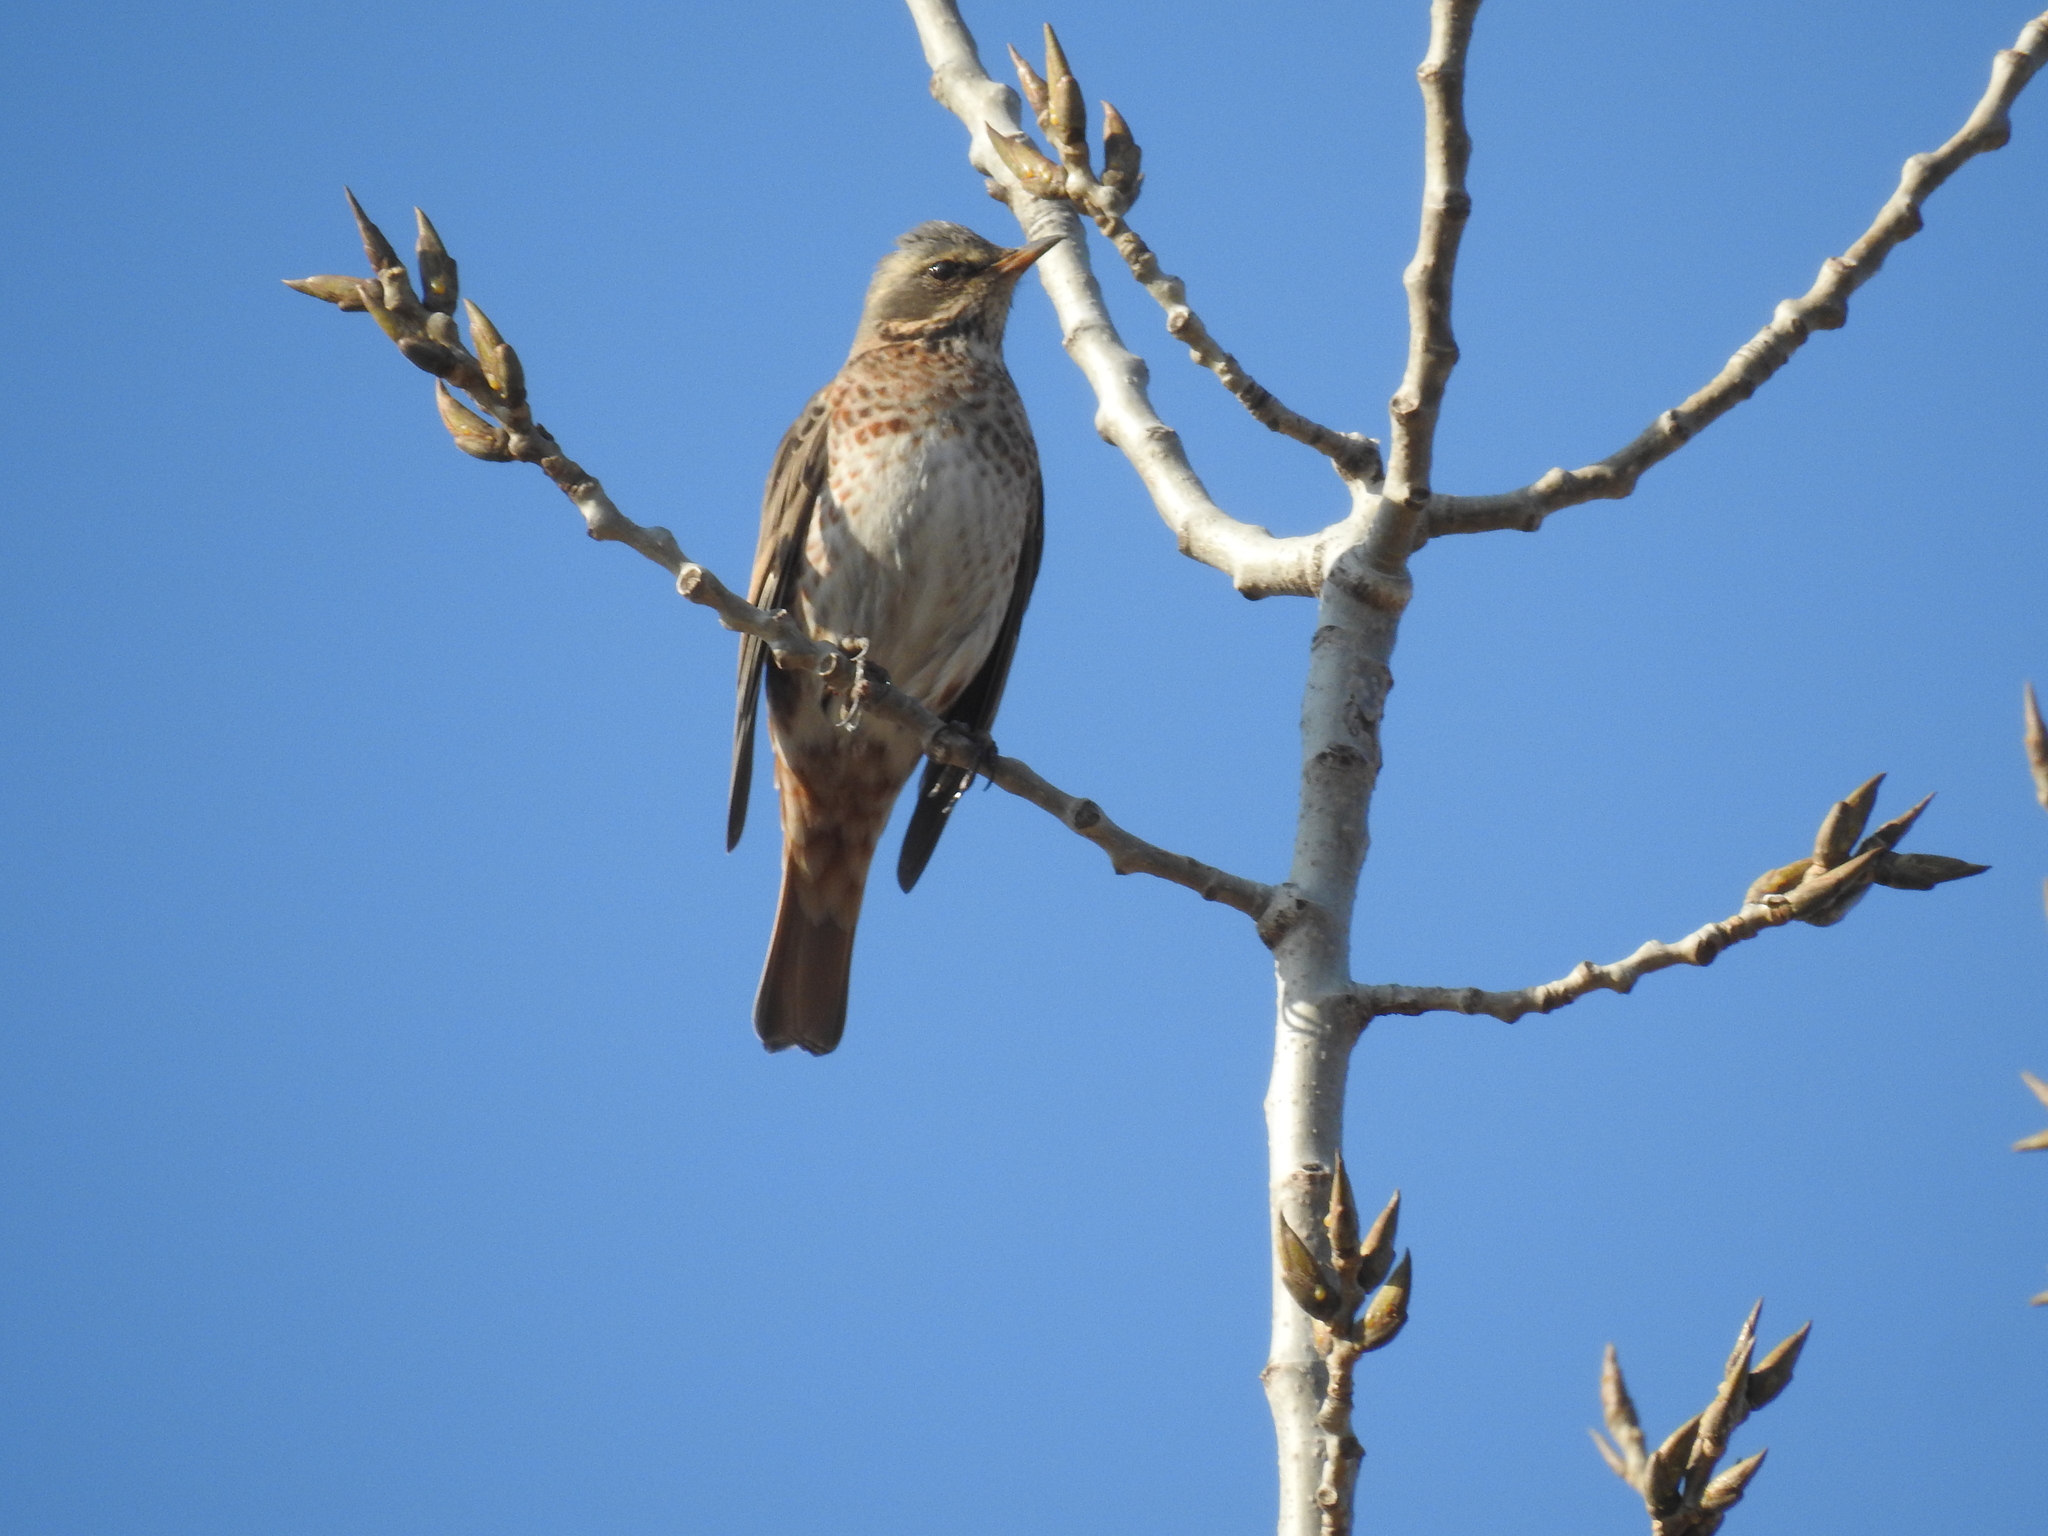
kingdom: Animalia
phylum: Chordata
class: Aves
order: Passeriformes
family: Turdidae
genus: Turdus
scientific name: Turdus naumanni
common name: Naumann's thrush
